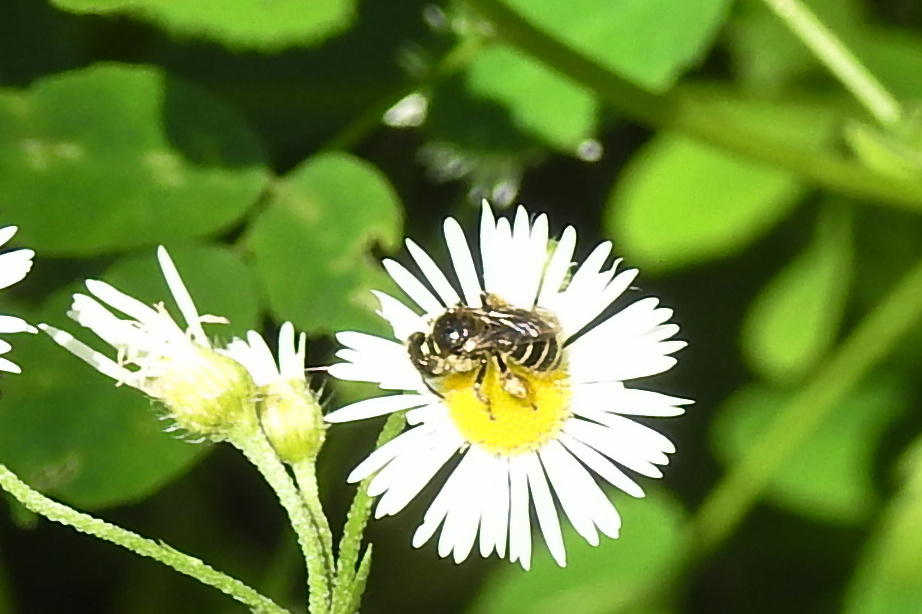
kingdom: Animalia
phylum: Arthropoda
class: Insecta
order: Hymenoptera
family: Andrenidae
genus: Calliopsis
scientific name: Calliopsis andreniformis
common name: Eastern calliopsis bee
